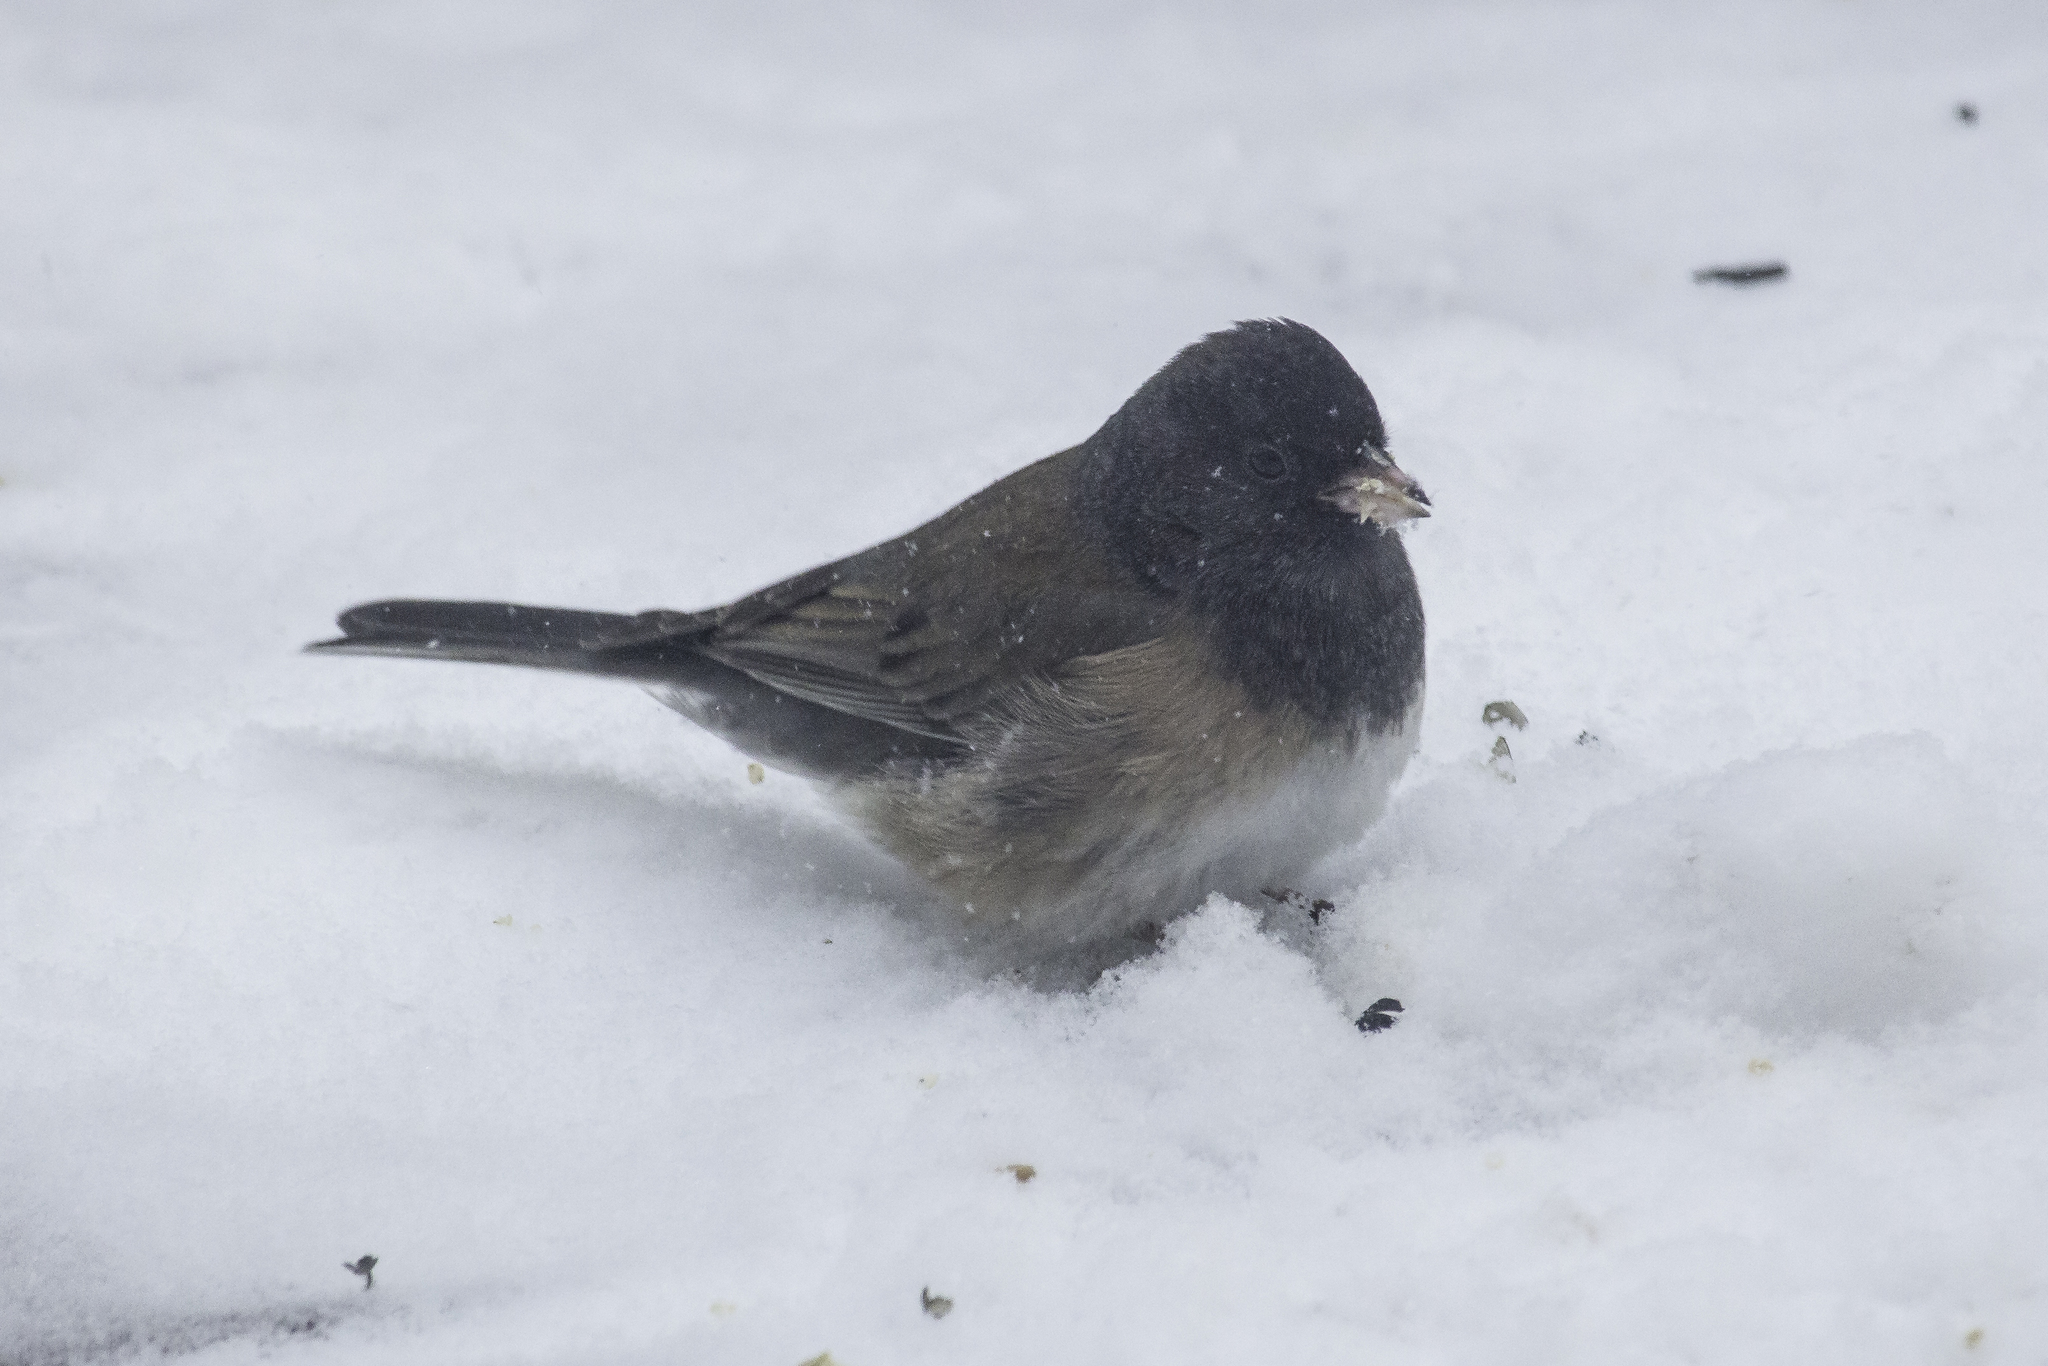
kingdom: Animalia
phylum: Chordata
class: Aves
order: Passeriformes
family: Passerellidae
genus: Junco
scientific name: Junco hyemalis
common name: Dark-eyed junco
